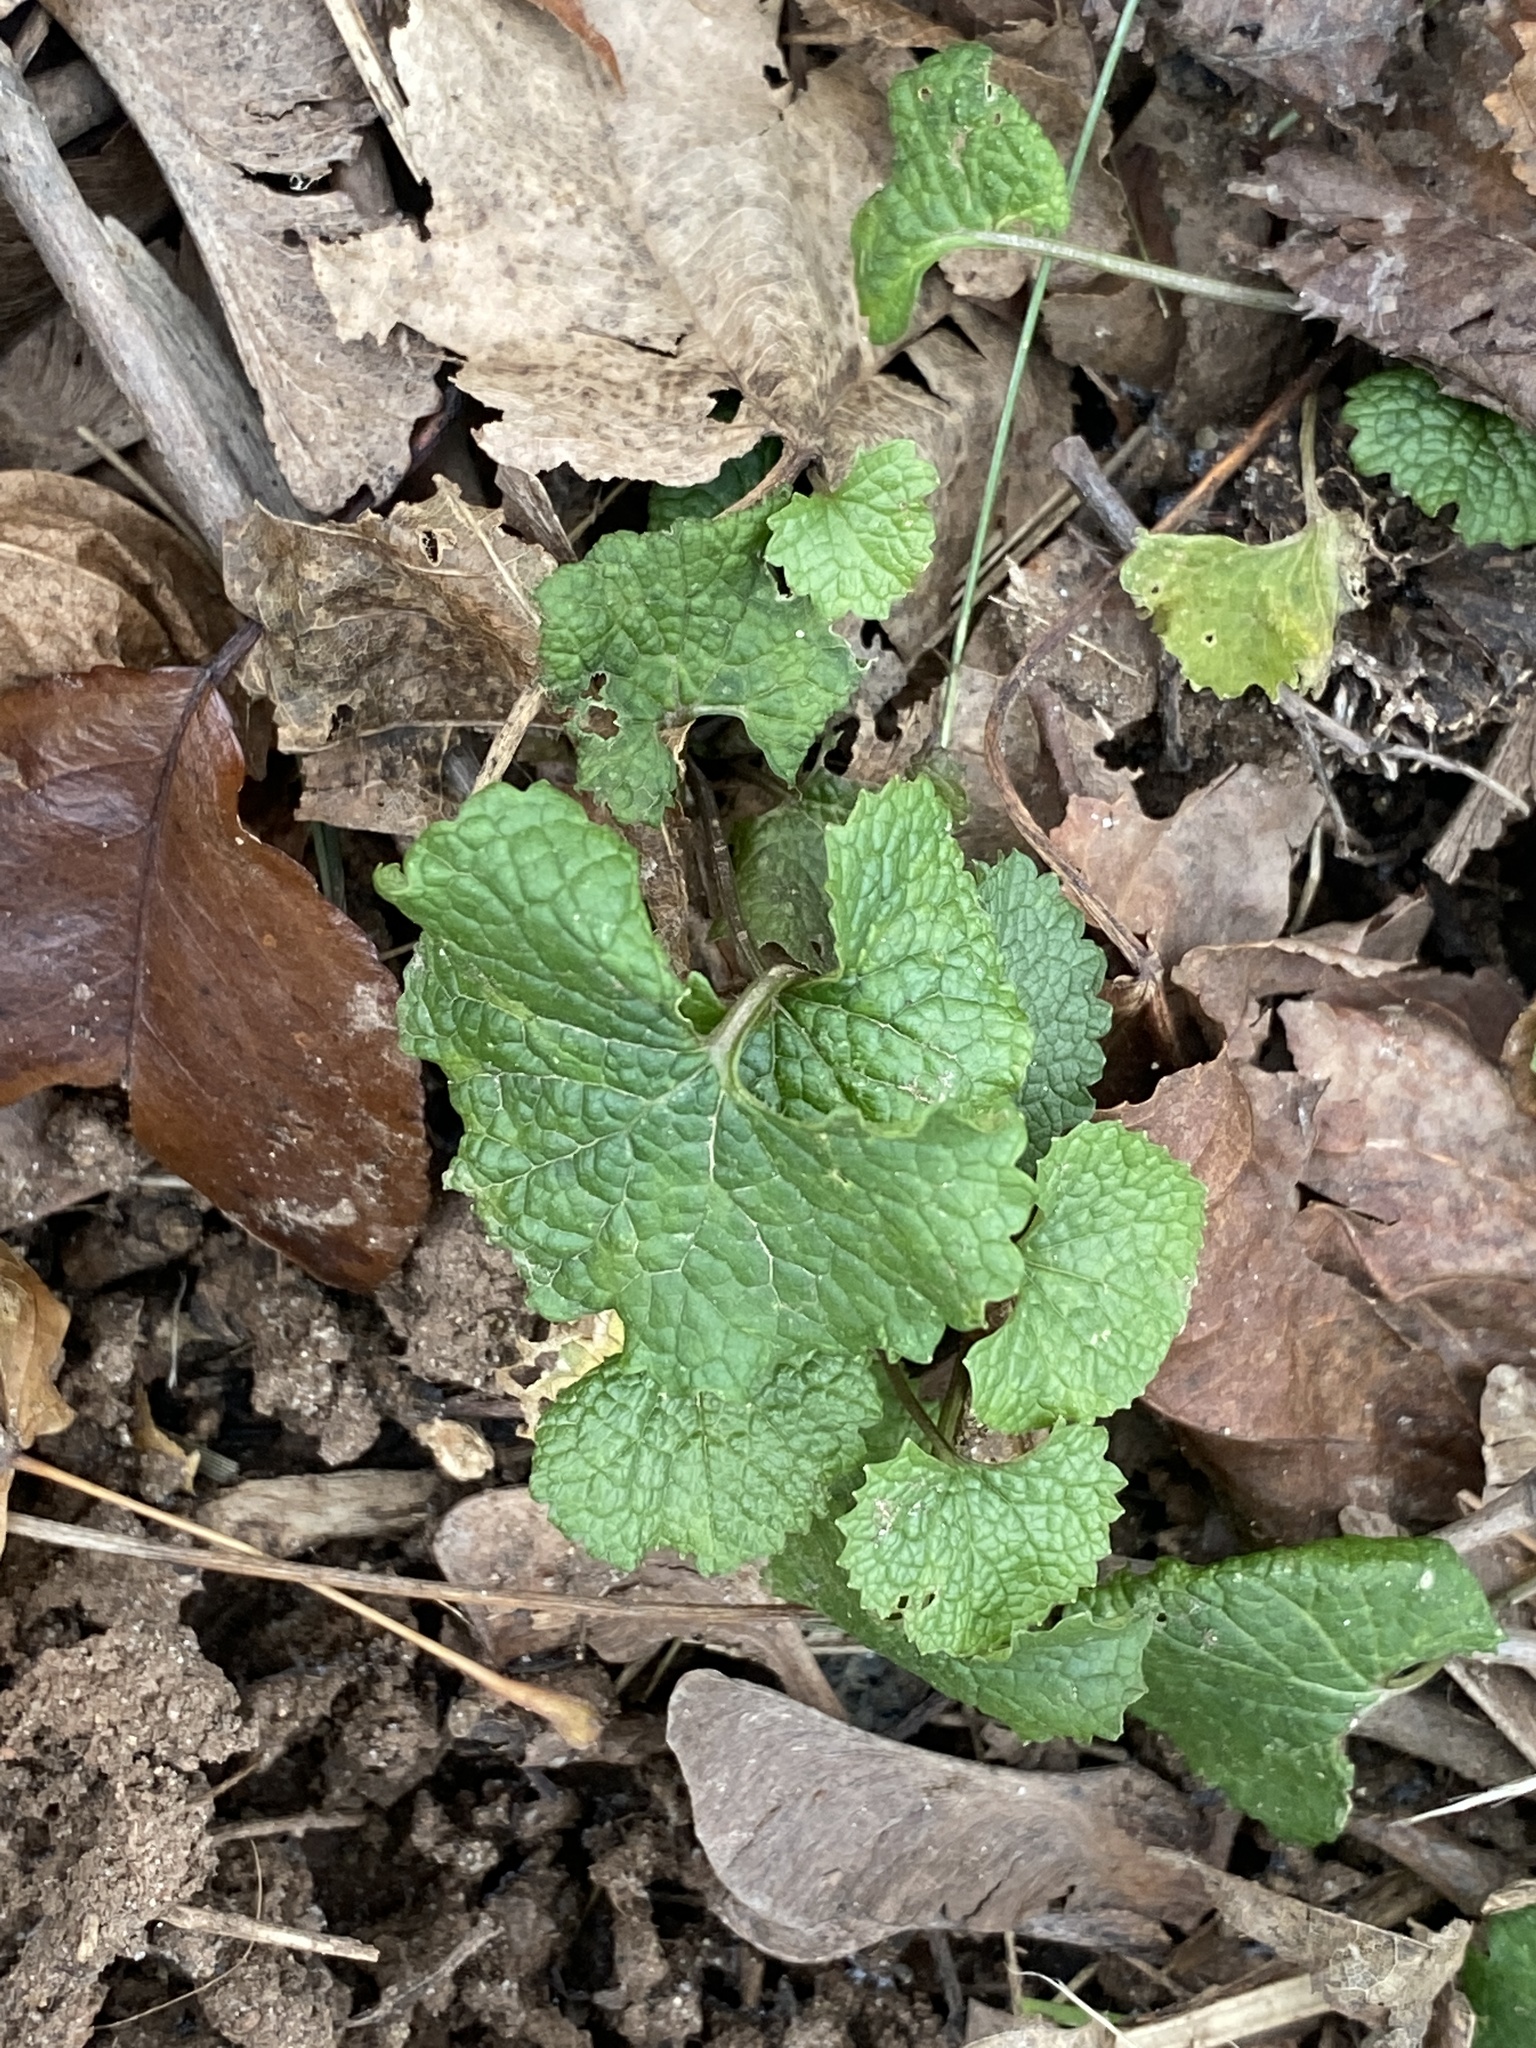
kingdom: Plantae
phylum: Tracheophyta
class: Magnoliopsida
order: Brassicales
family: Brassicaceae
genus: Alliaria
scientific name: Alliaria petiolata
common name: Garlic mustard
